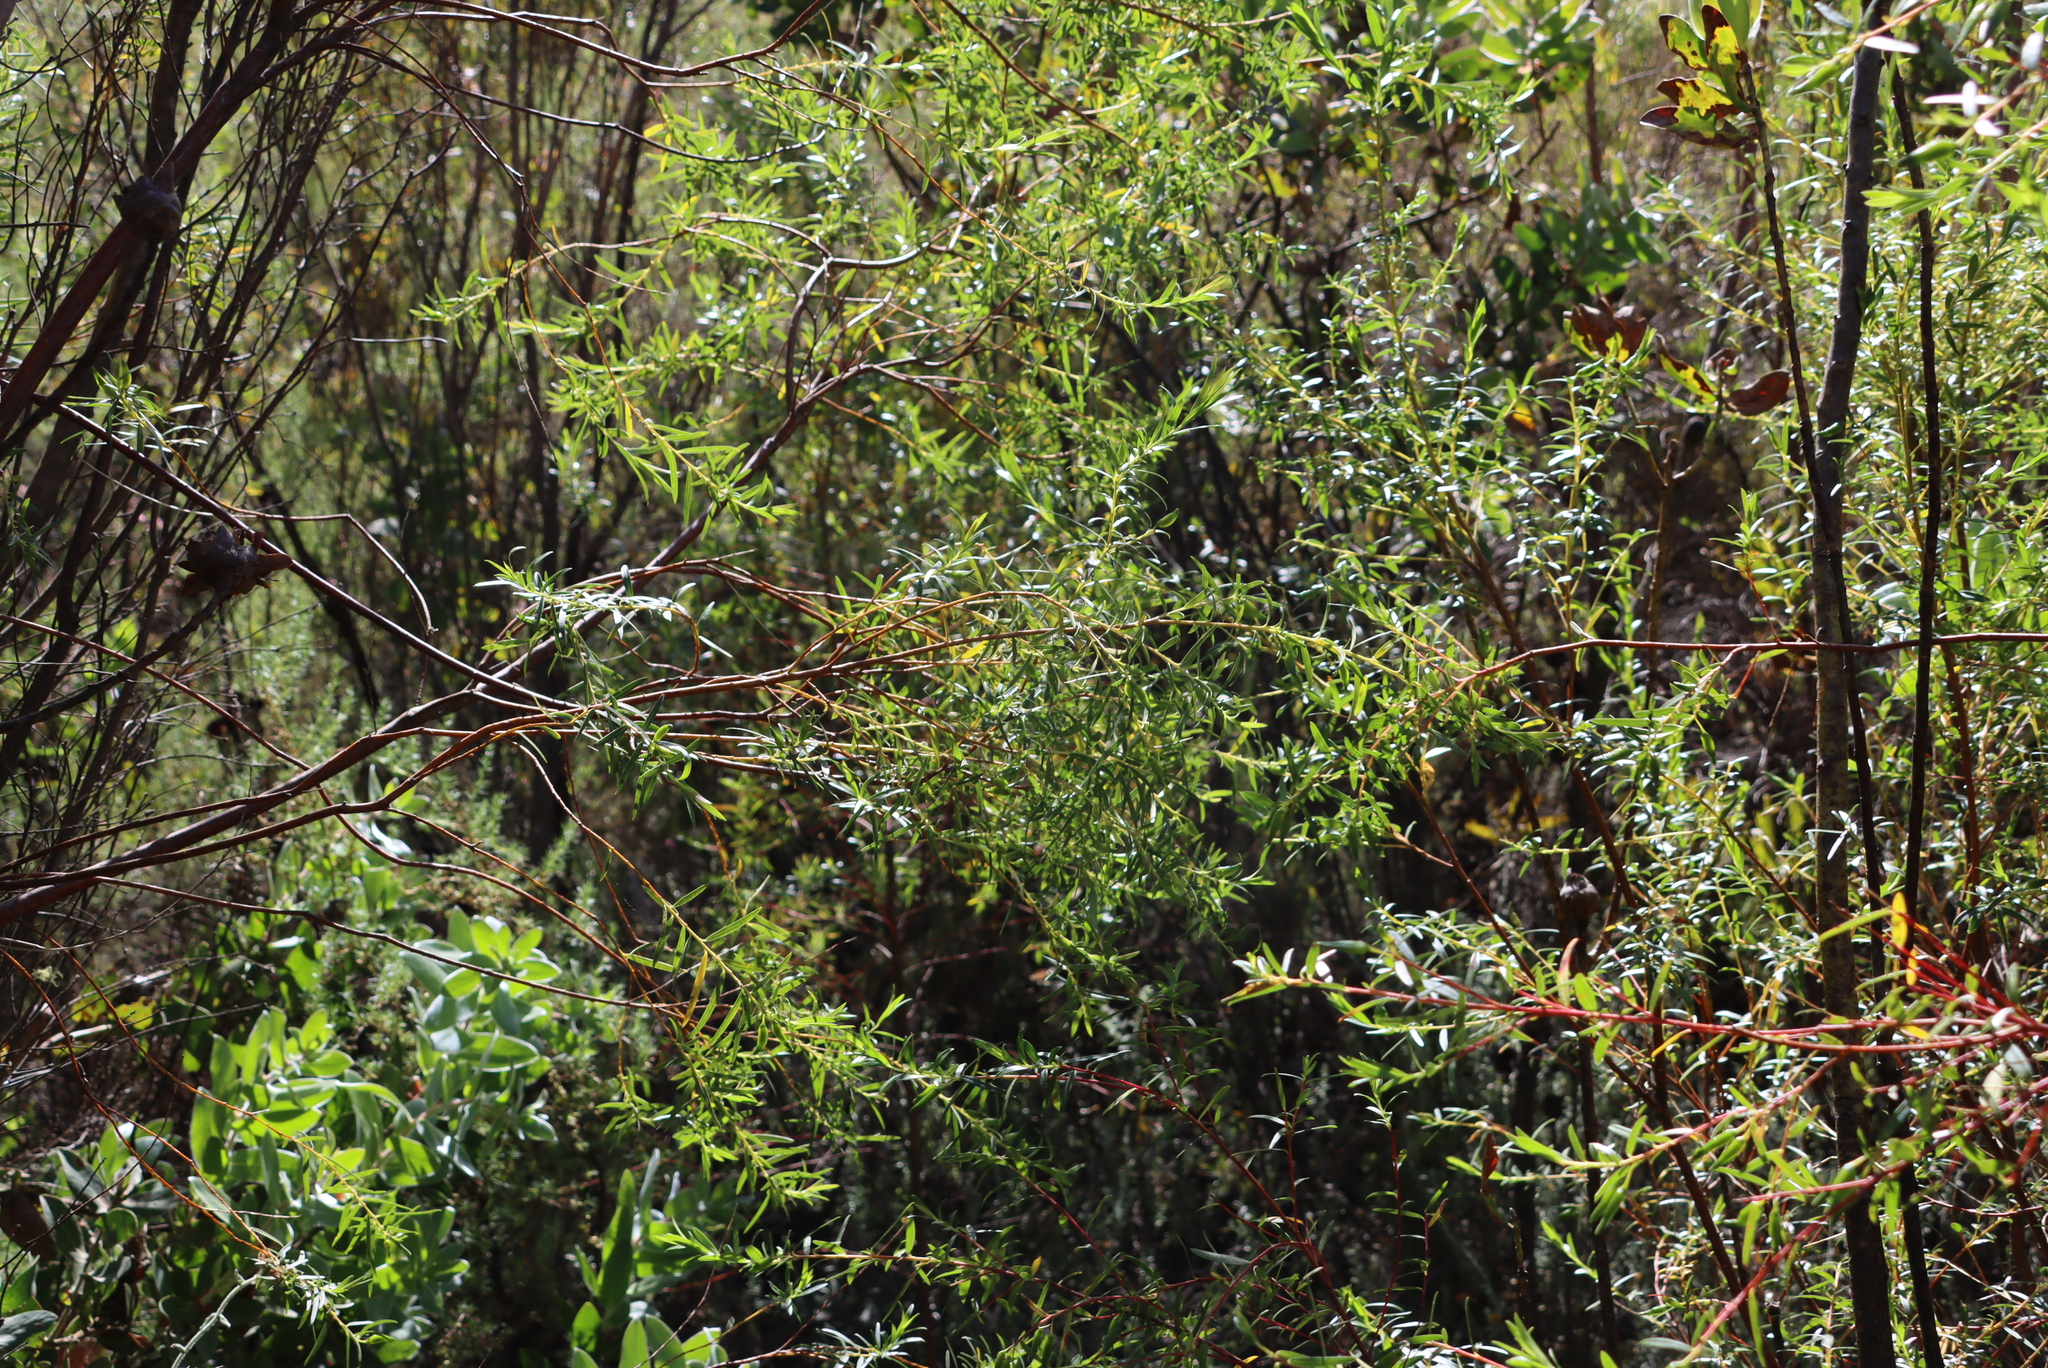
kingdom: Plantae
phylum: Tracheophyta
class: Magnoliopsida
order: Sapindales
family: Rutaceae
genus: Empleurum
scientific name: Empleurum unicapsulare
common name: False buchu
